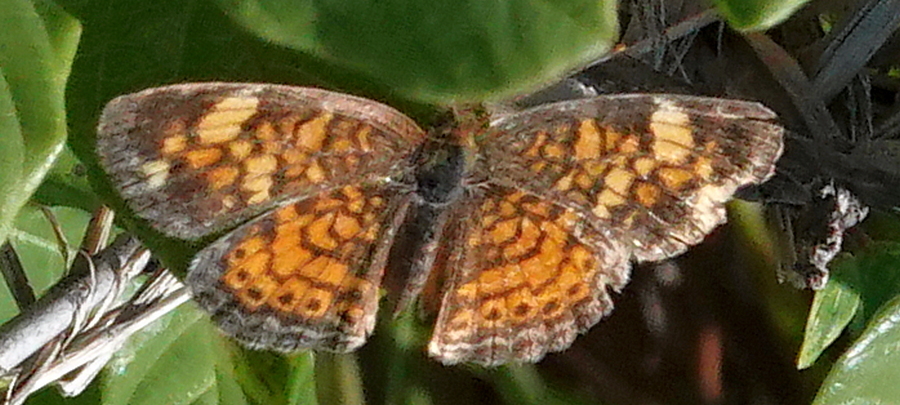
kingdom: Animalia
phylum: Arthropoda
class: Insecta
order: Lepidoptera
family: Nymphalidae
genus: Phyciodes
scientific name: Phyciodes tharos
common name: Pearl crescent
